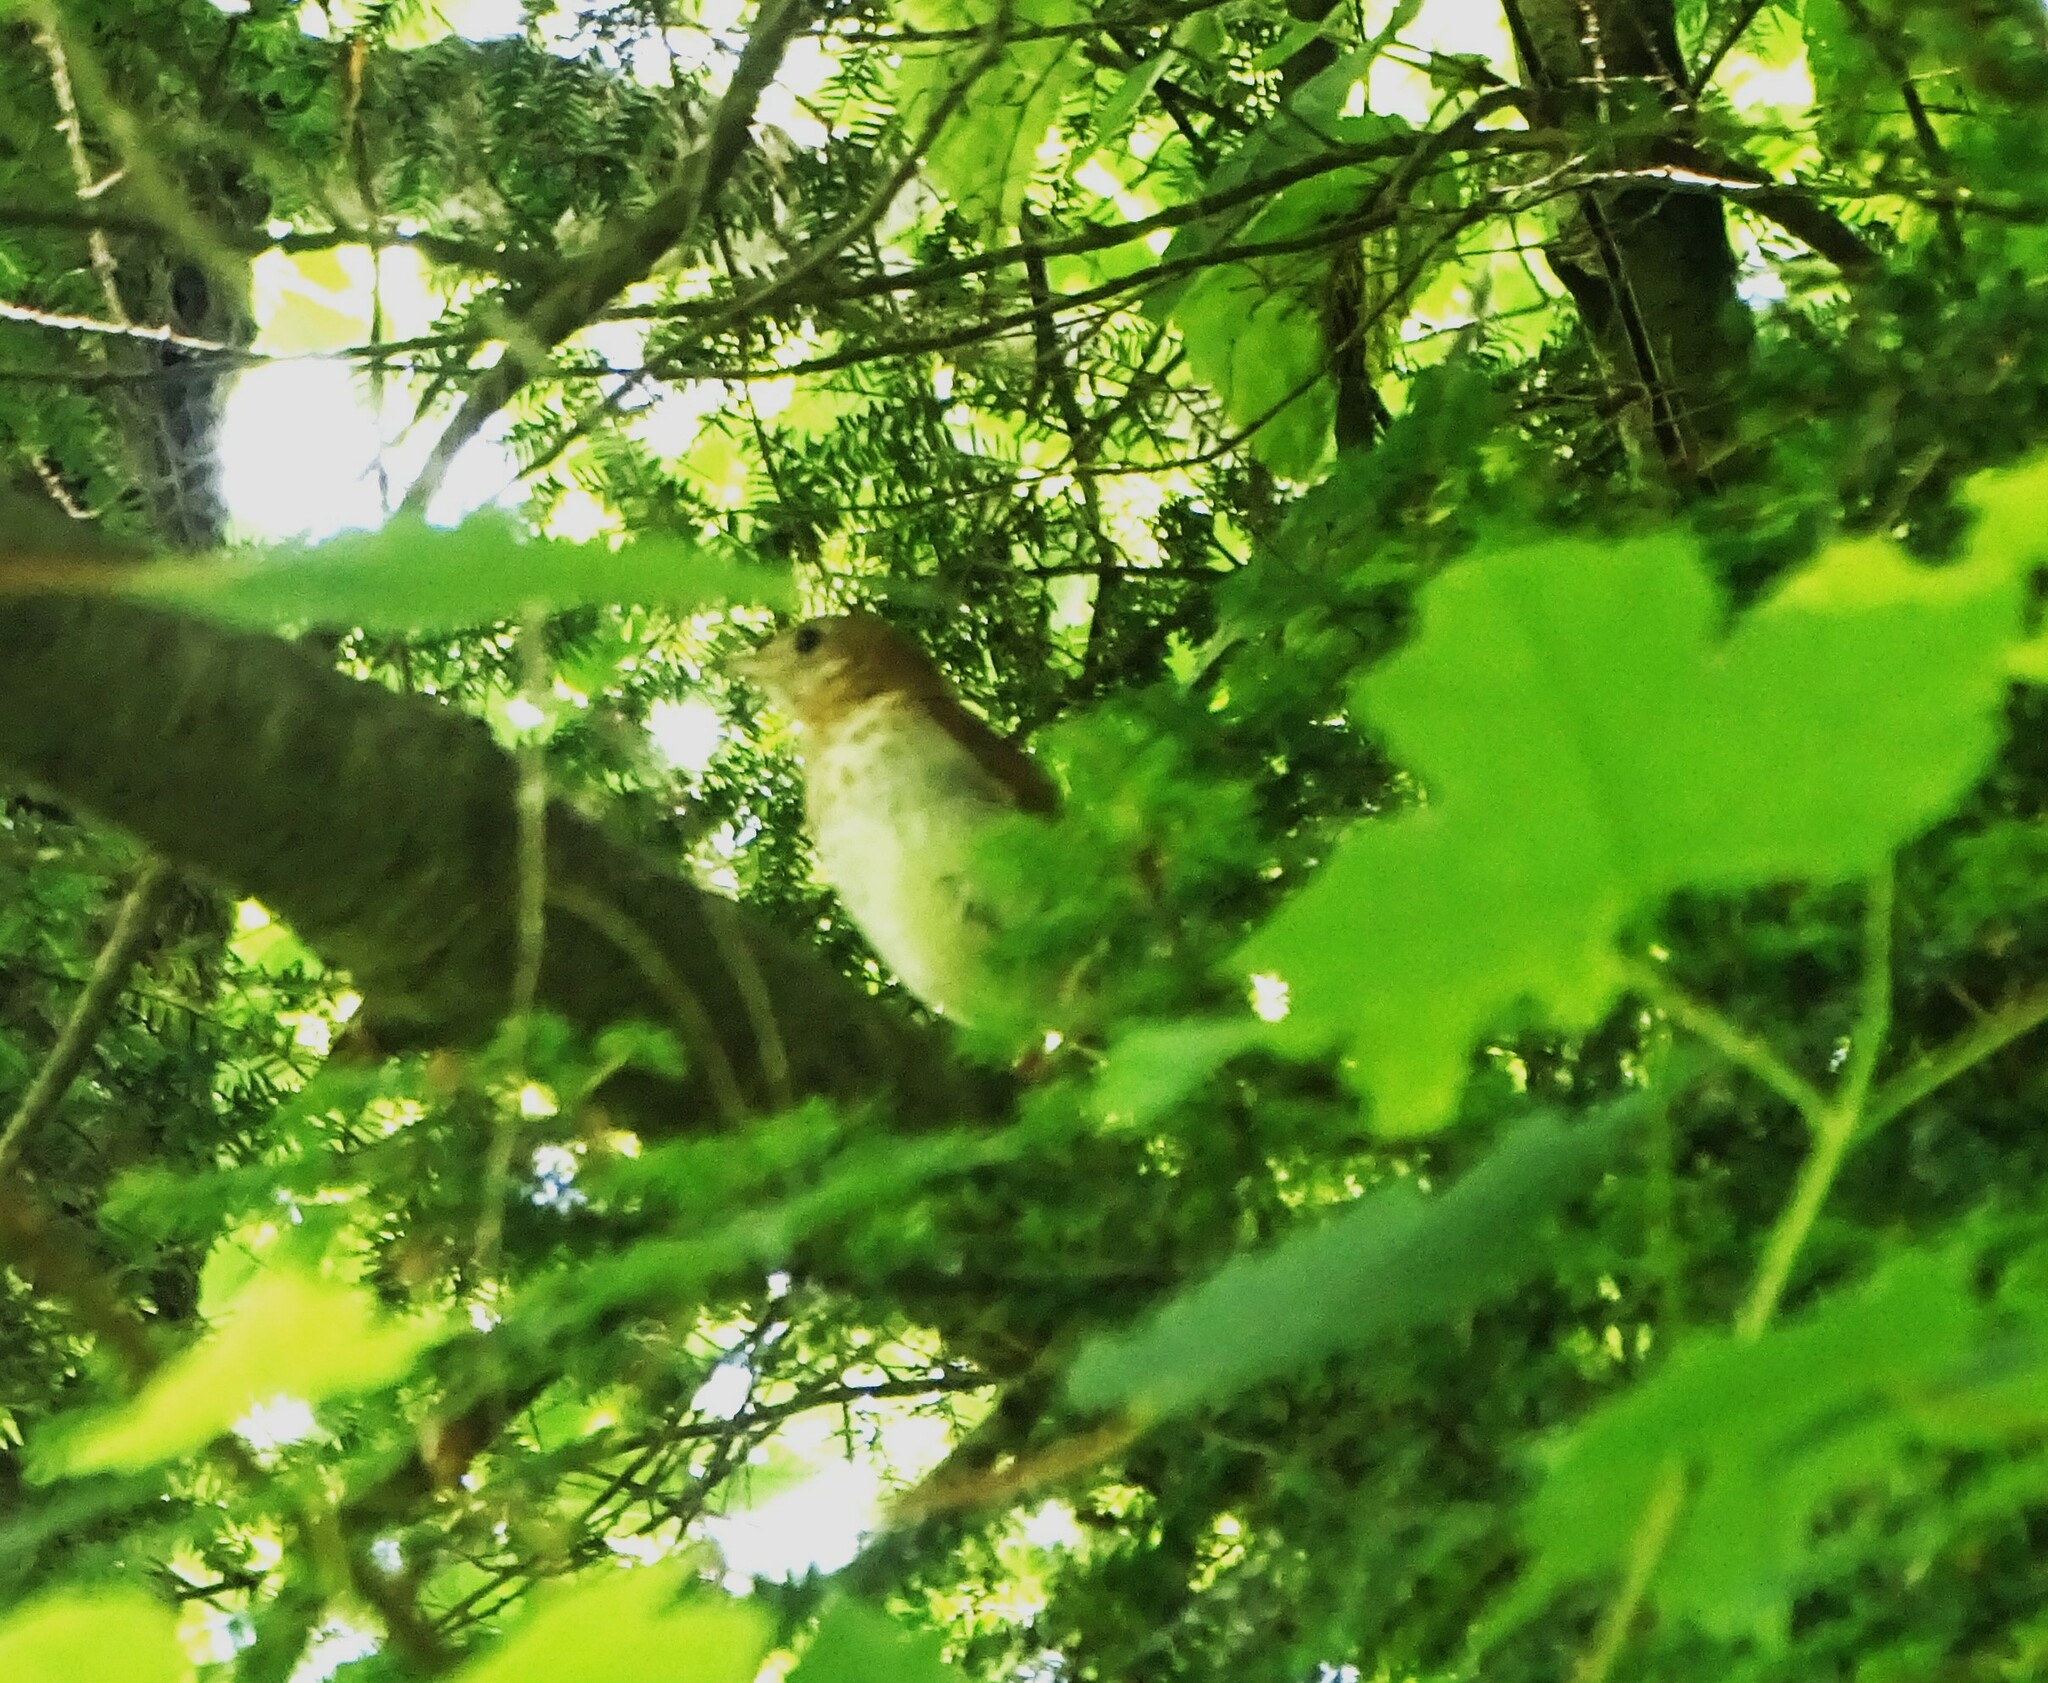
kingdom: Animalia
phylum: Chordata
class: Aves
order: Passeriformes
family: Turdidae
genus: Catharus
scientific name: Catharus fuscescens
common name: Veery
